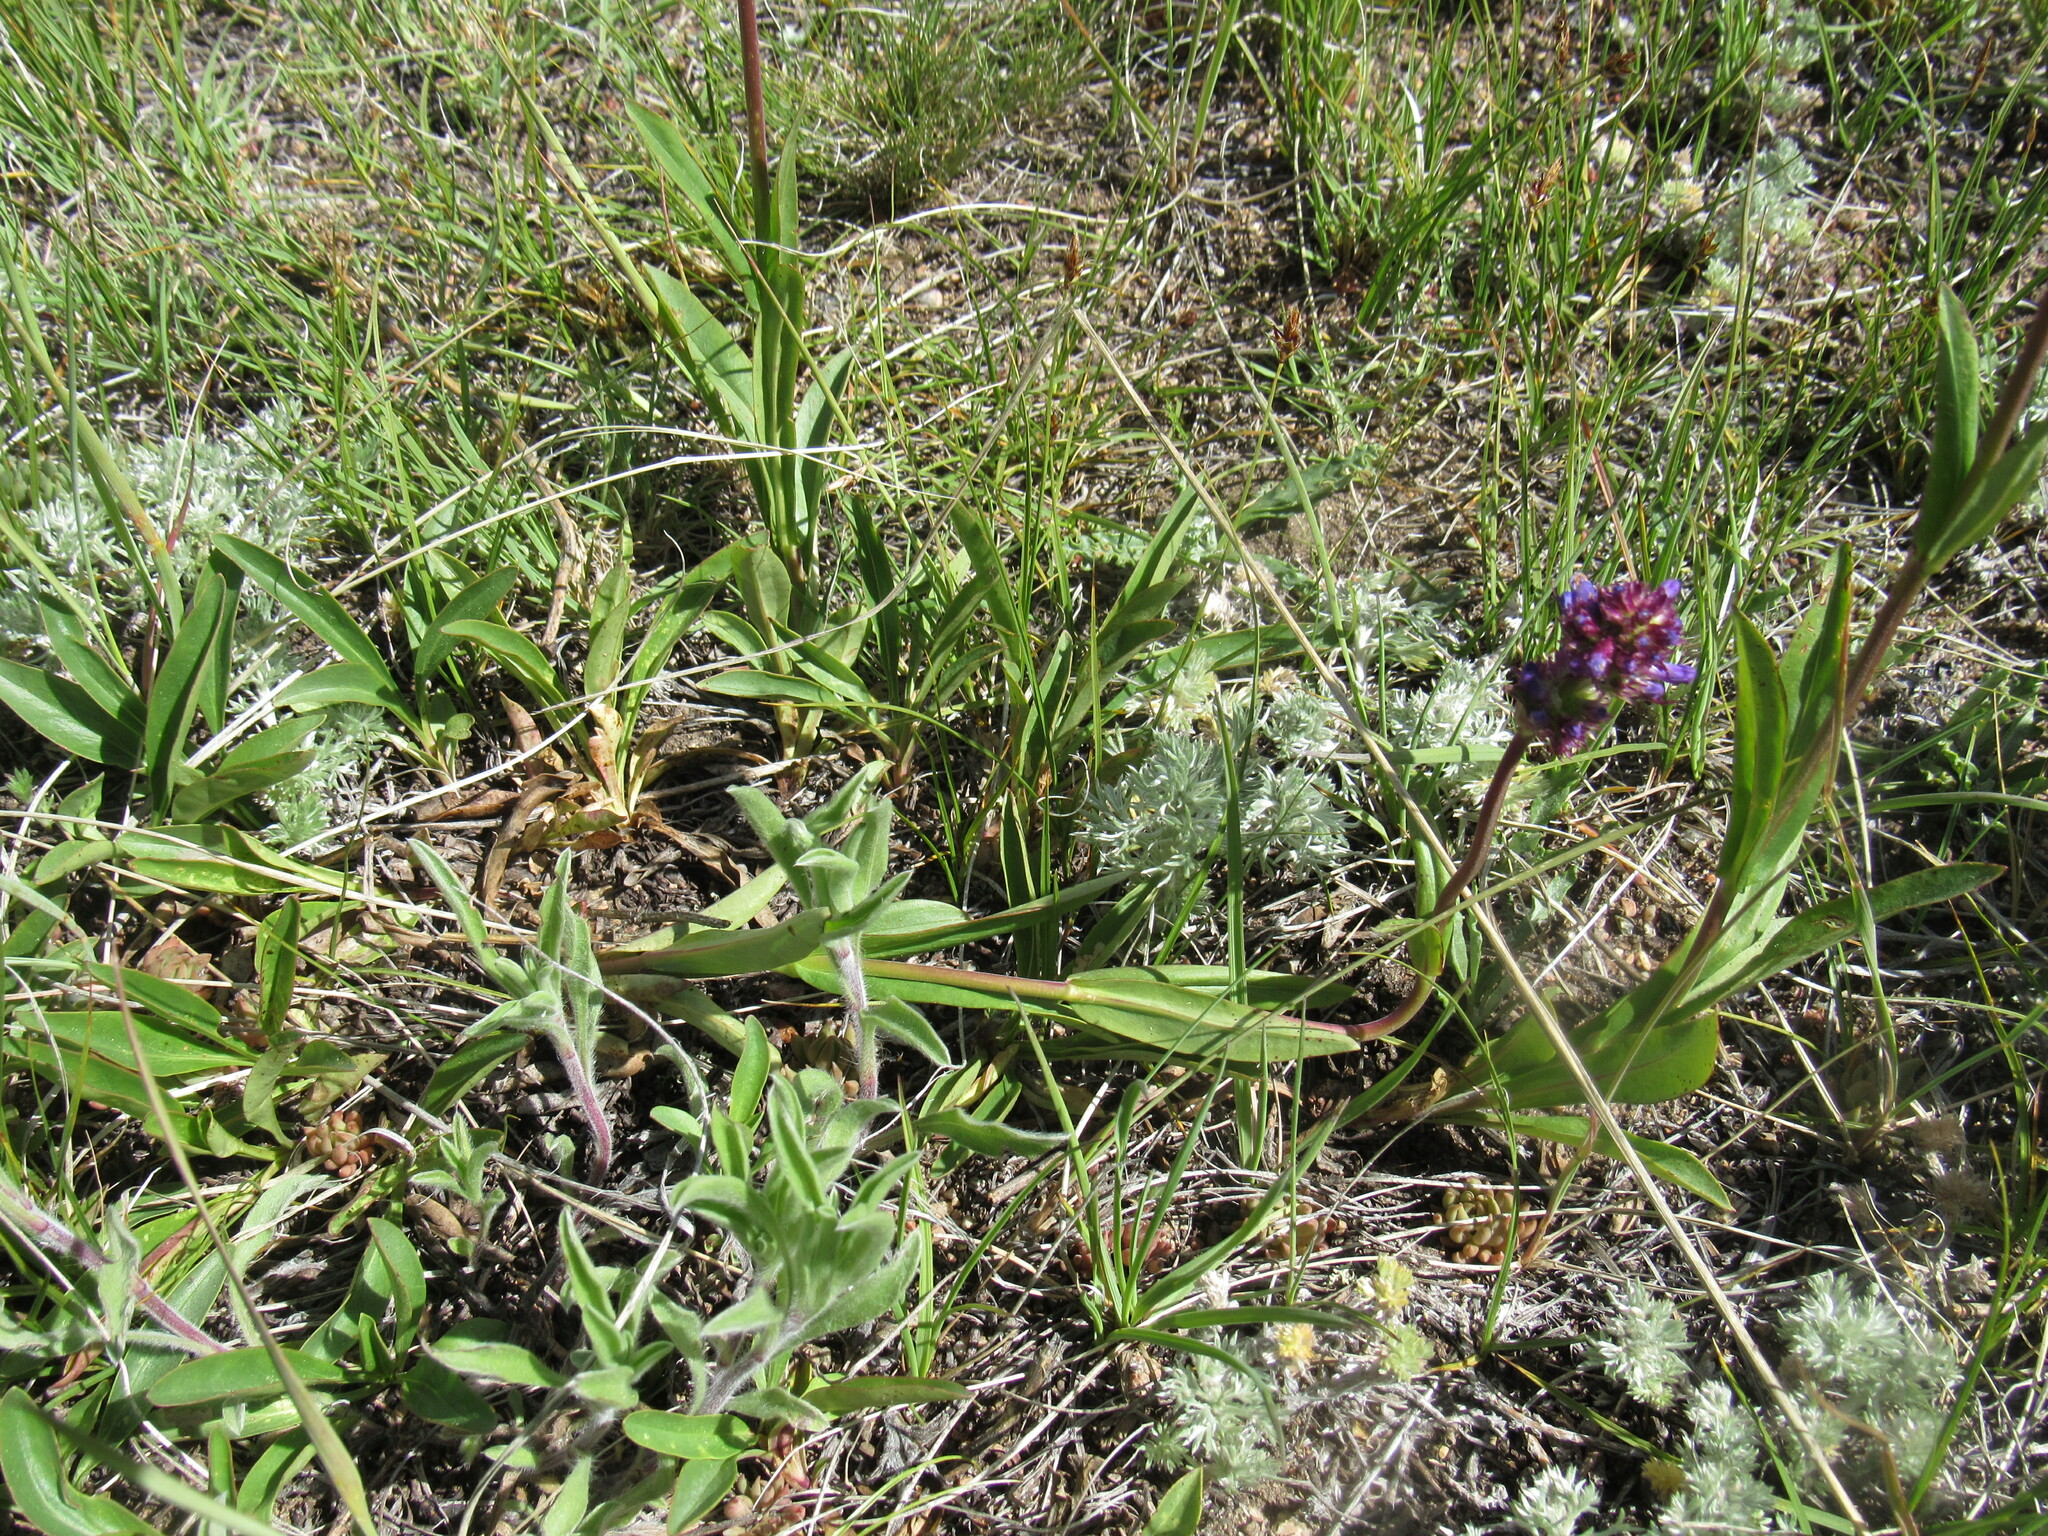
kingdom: Plantae
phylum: Tracheophyta
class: Magnoliopsida
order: Lamiales
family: Plantaginaceae
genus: Penstemon
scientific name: Penstemon procerus
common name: Small-flower penstemon
